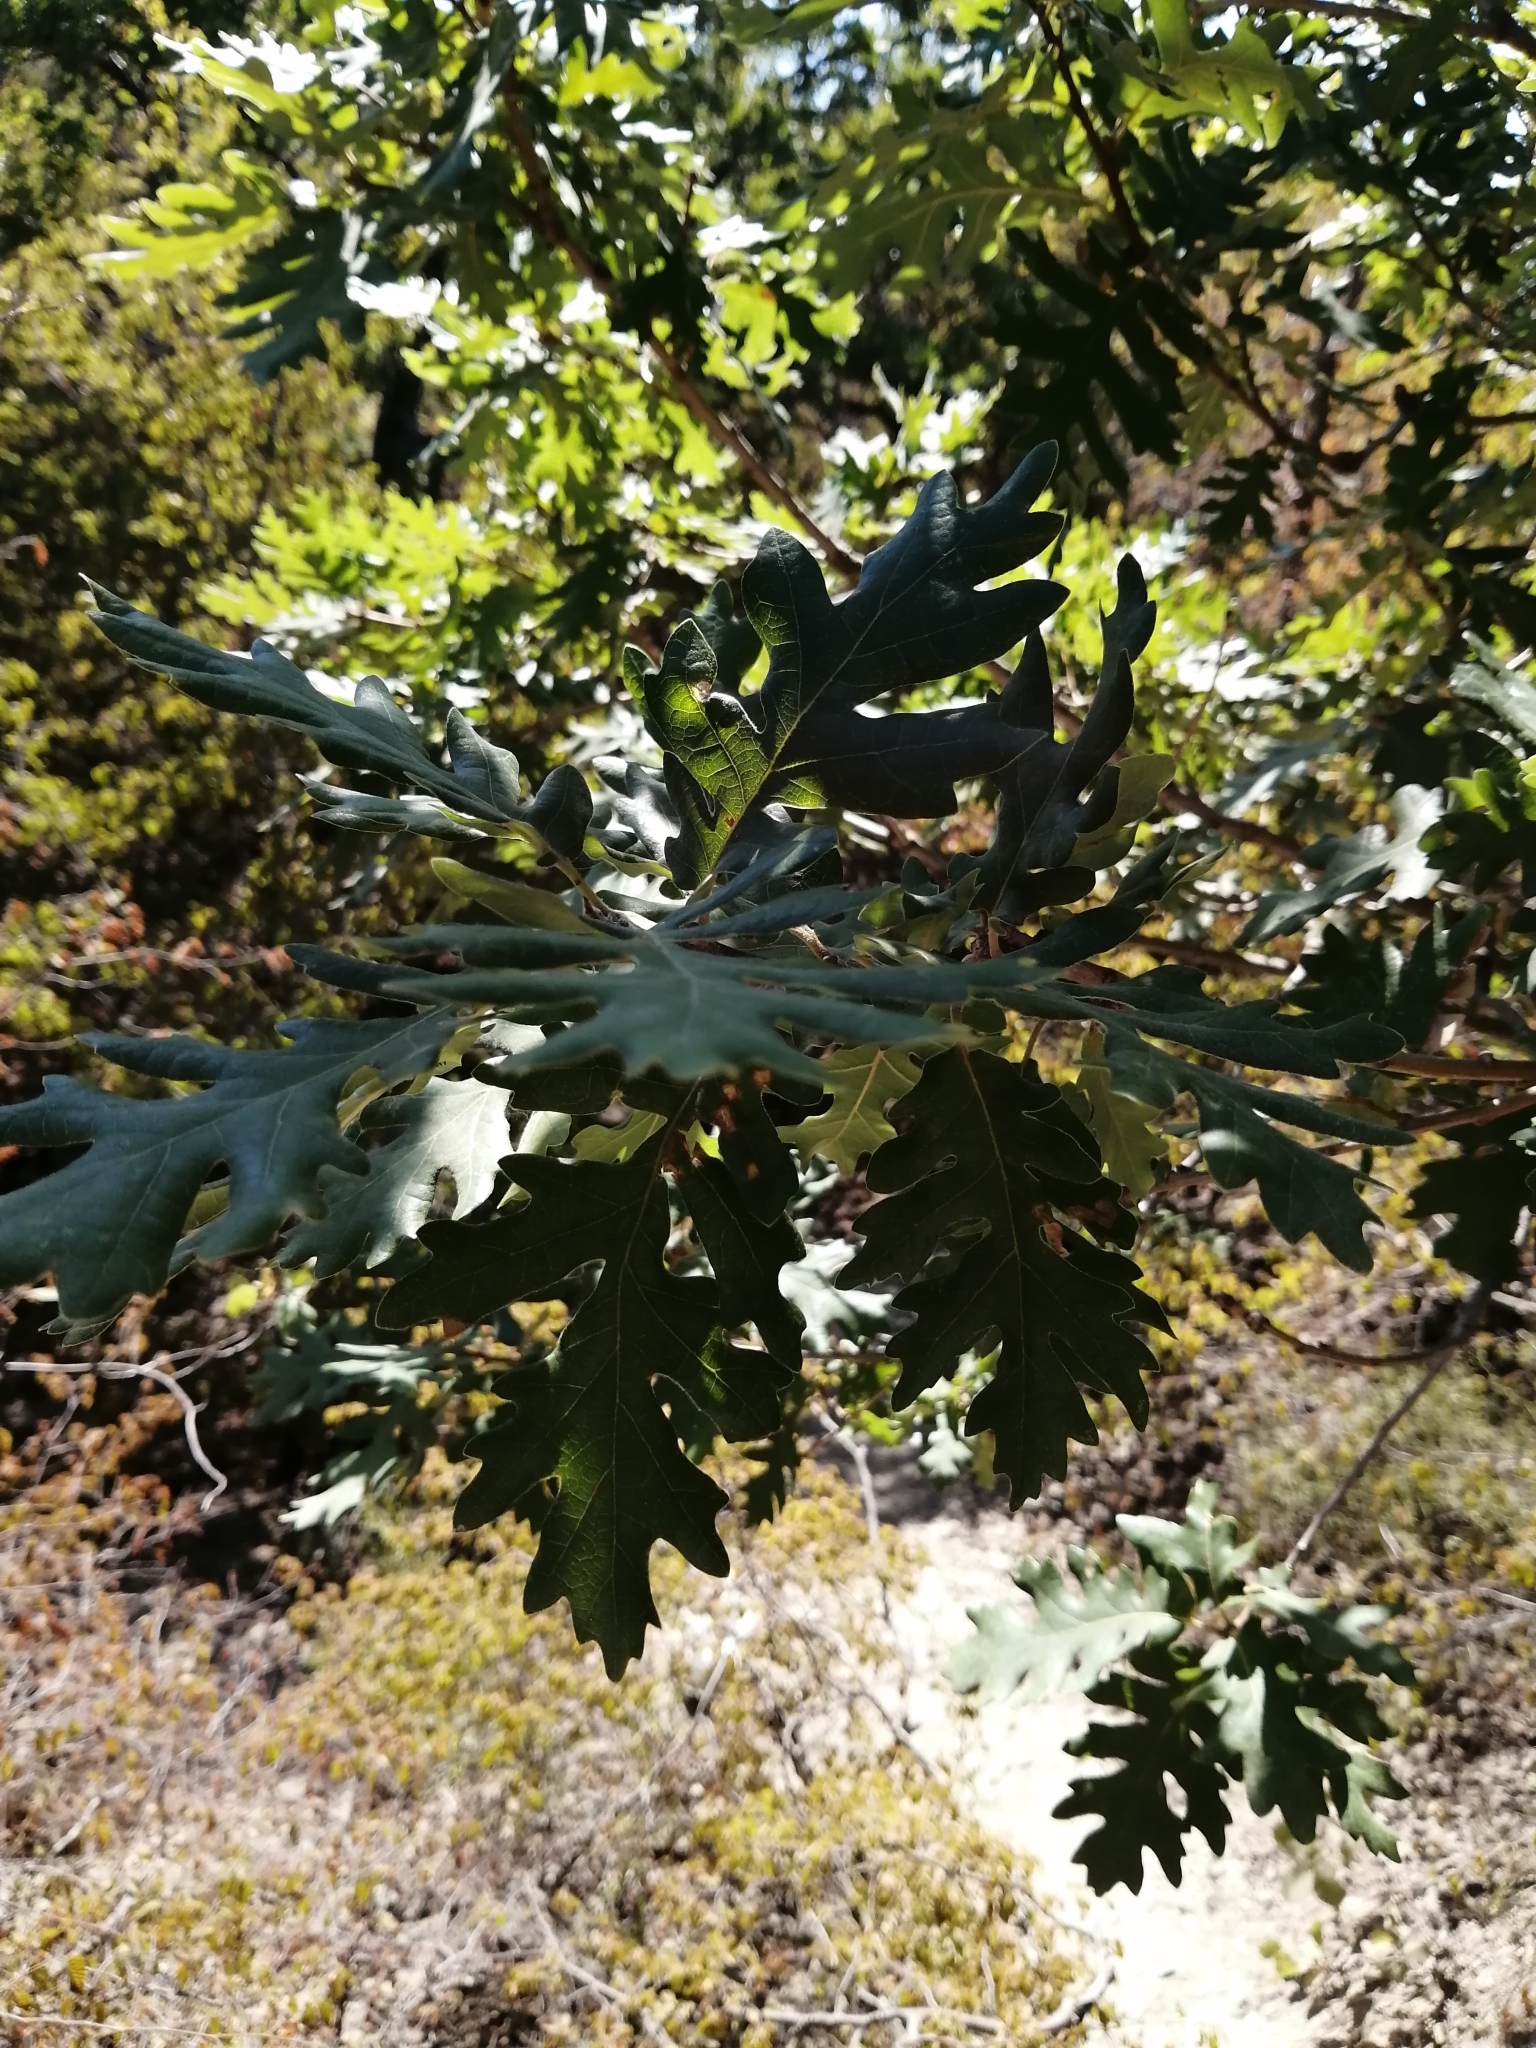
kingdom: Plantae
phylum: Tracheophyta
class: Magnoliopsida
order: Fagales
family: Fagaceae
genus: Quercus
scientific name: Quercus pubescens
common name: Downy oak
